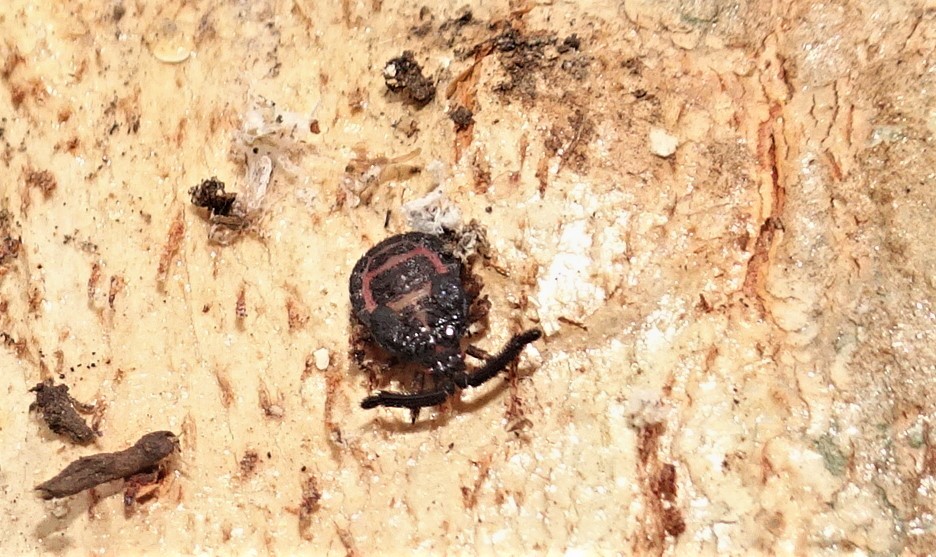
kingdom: Animalia
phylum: Arthropoda
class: Insecta
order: Hemiptera
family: Reduviidae
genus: Aradellus
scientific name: Aradellus cygnalis
